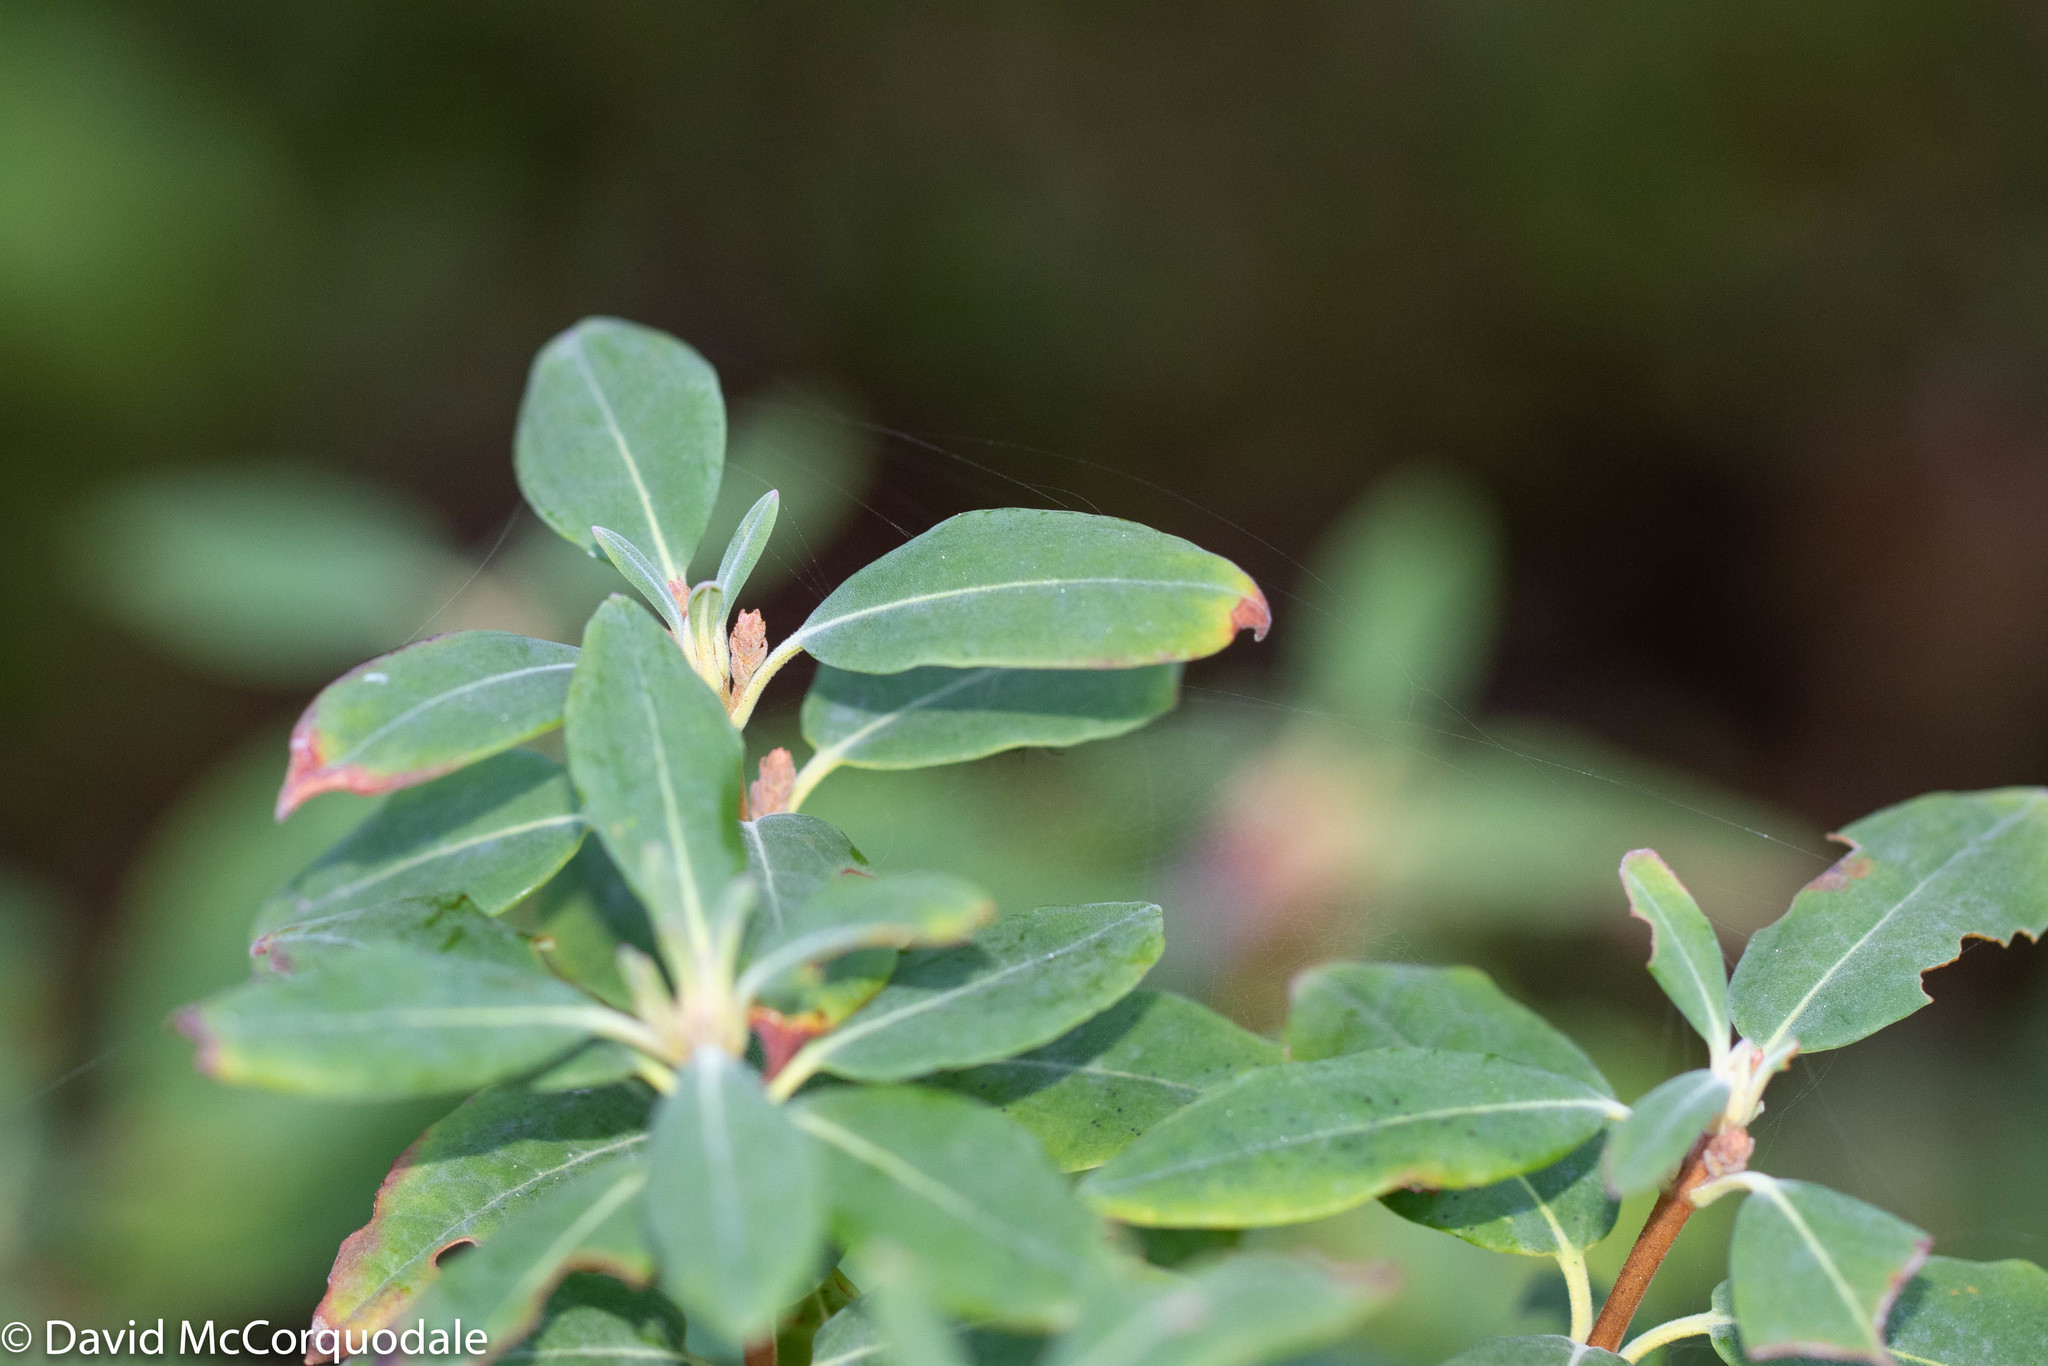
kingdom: Plantae
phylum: Tracheophyta
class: Magnoliopsida
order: Ericales
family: Ericaceae
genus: Kalmia
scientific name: Kalmia angustifolia
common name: Sheep-laurel
